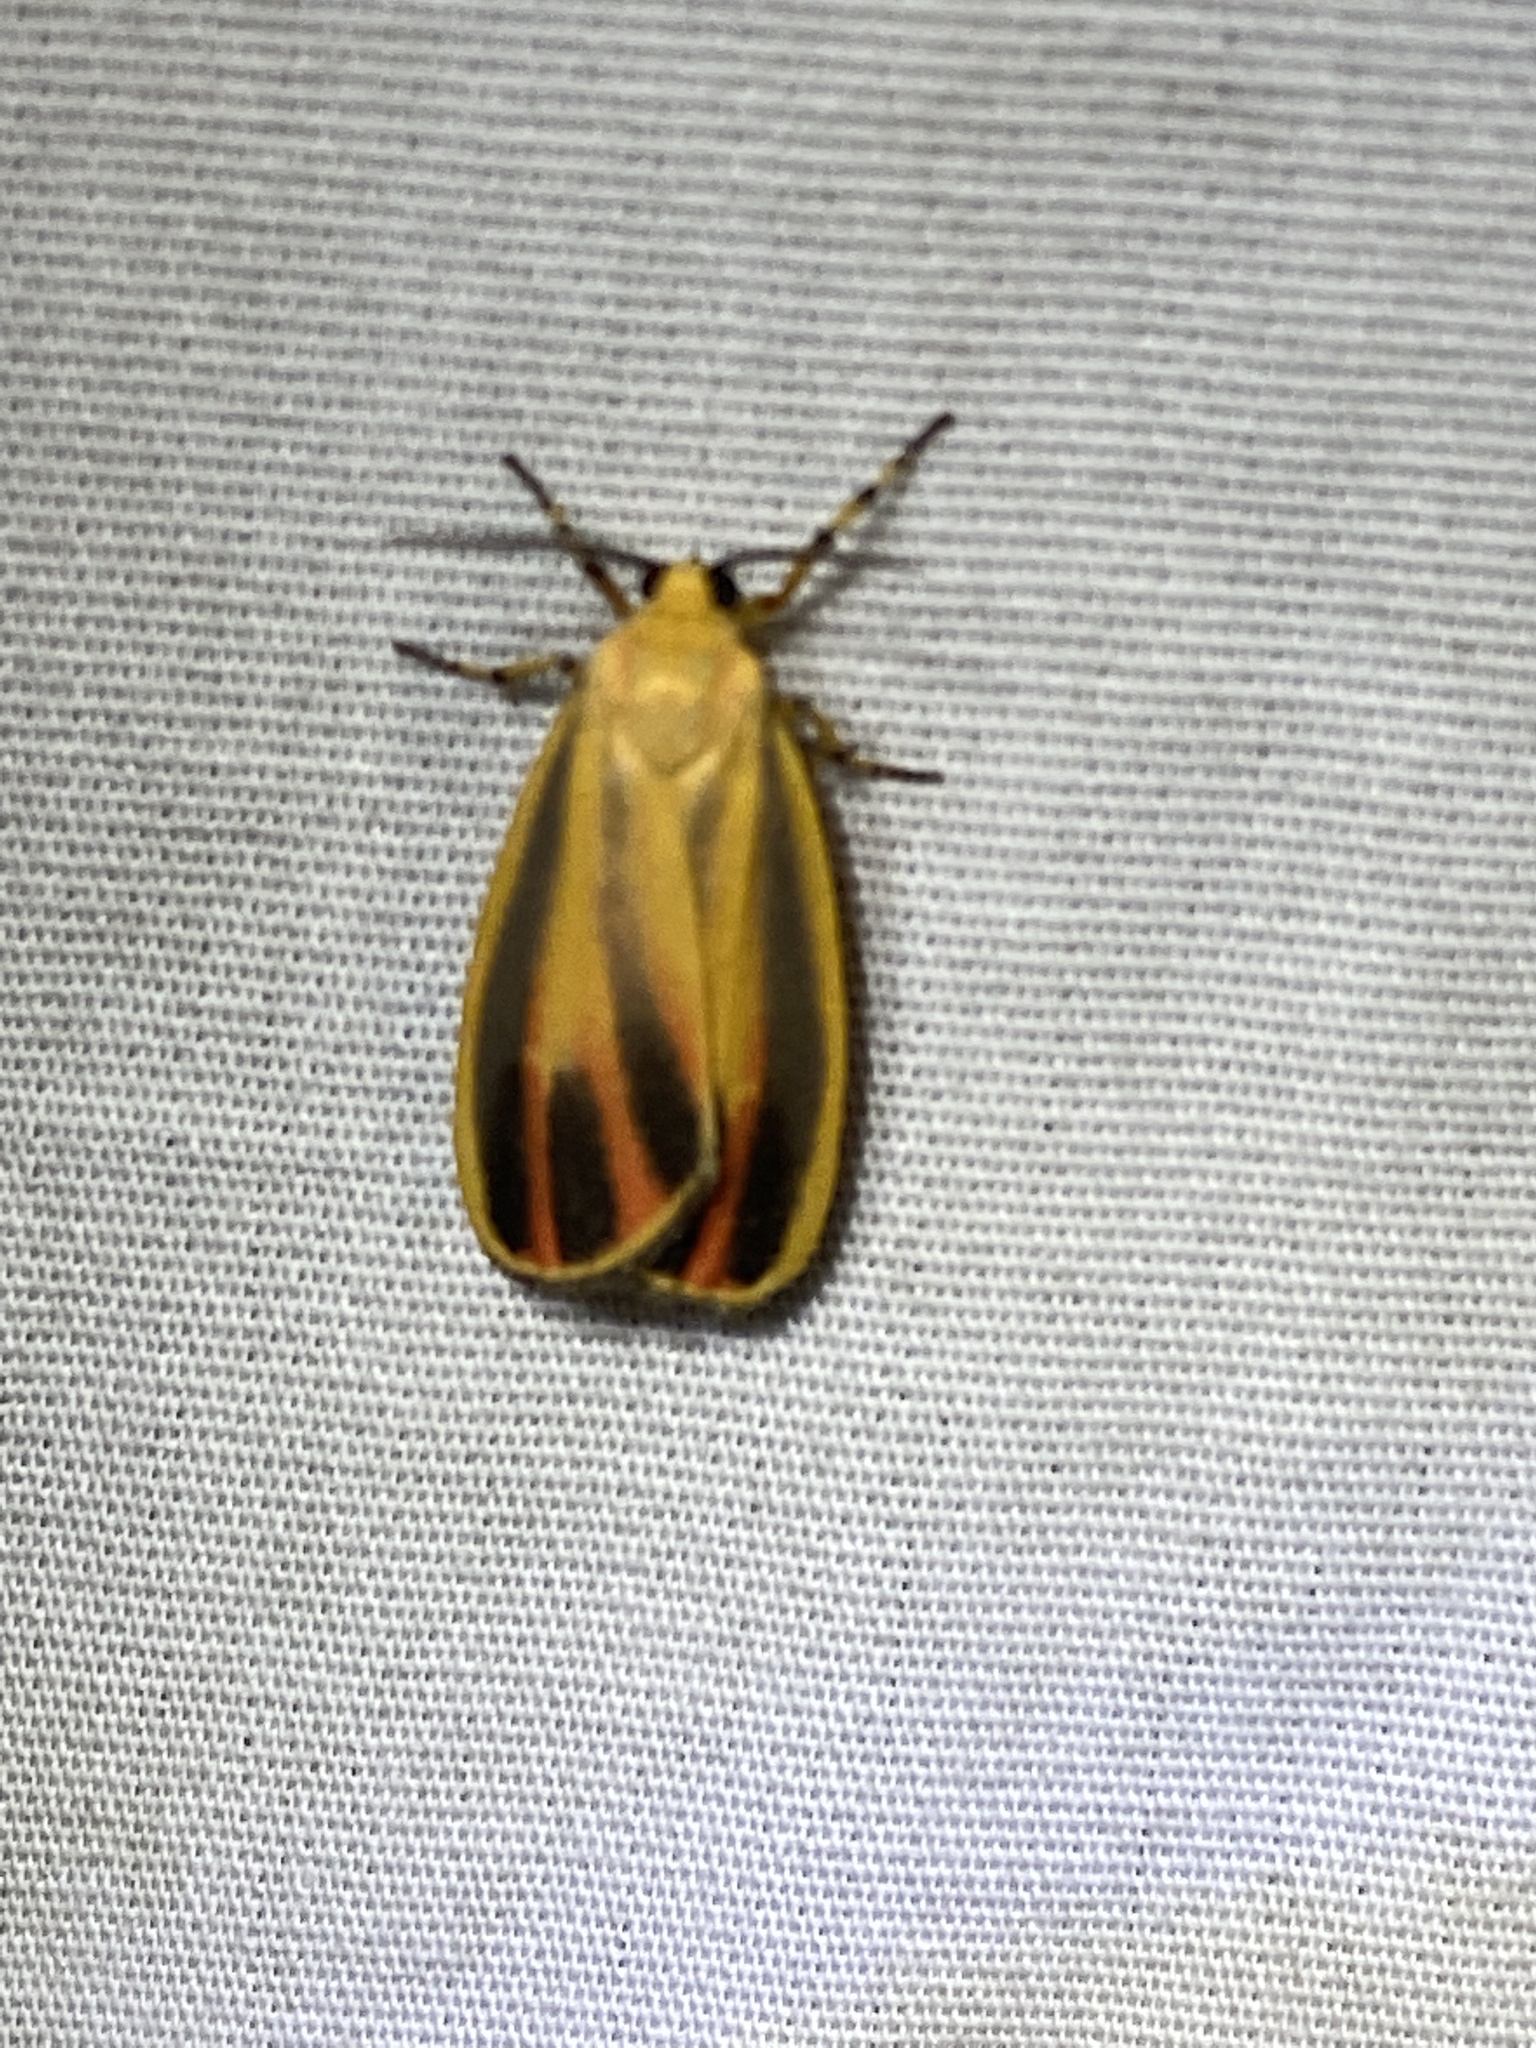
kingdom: Animalia
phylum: Arthropoda
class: Insecta
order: Lepidoptera
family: Erebidae
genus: Hypoprepia
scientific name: Hypoprepia fucosa
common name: Painted lichen moth
